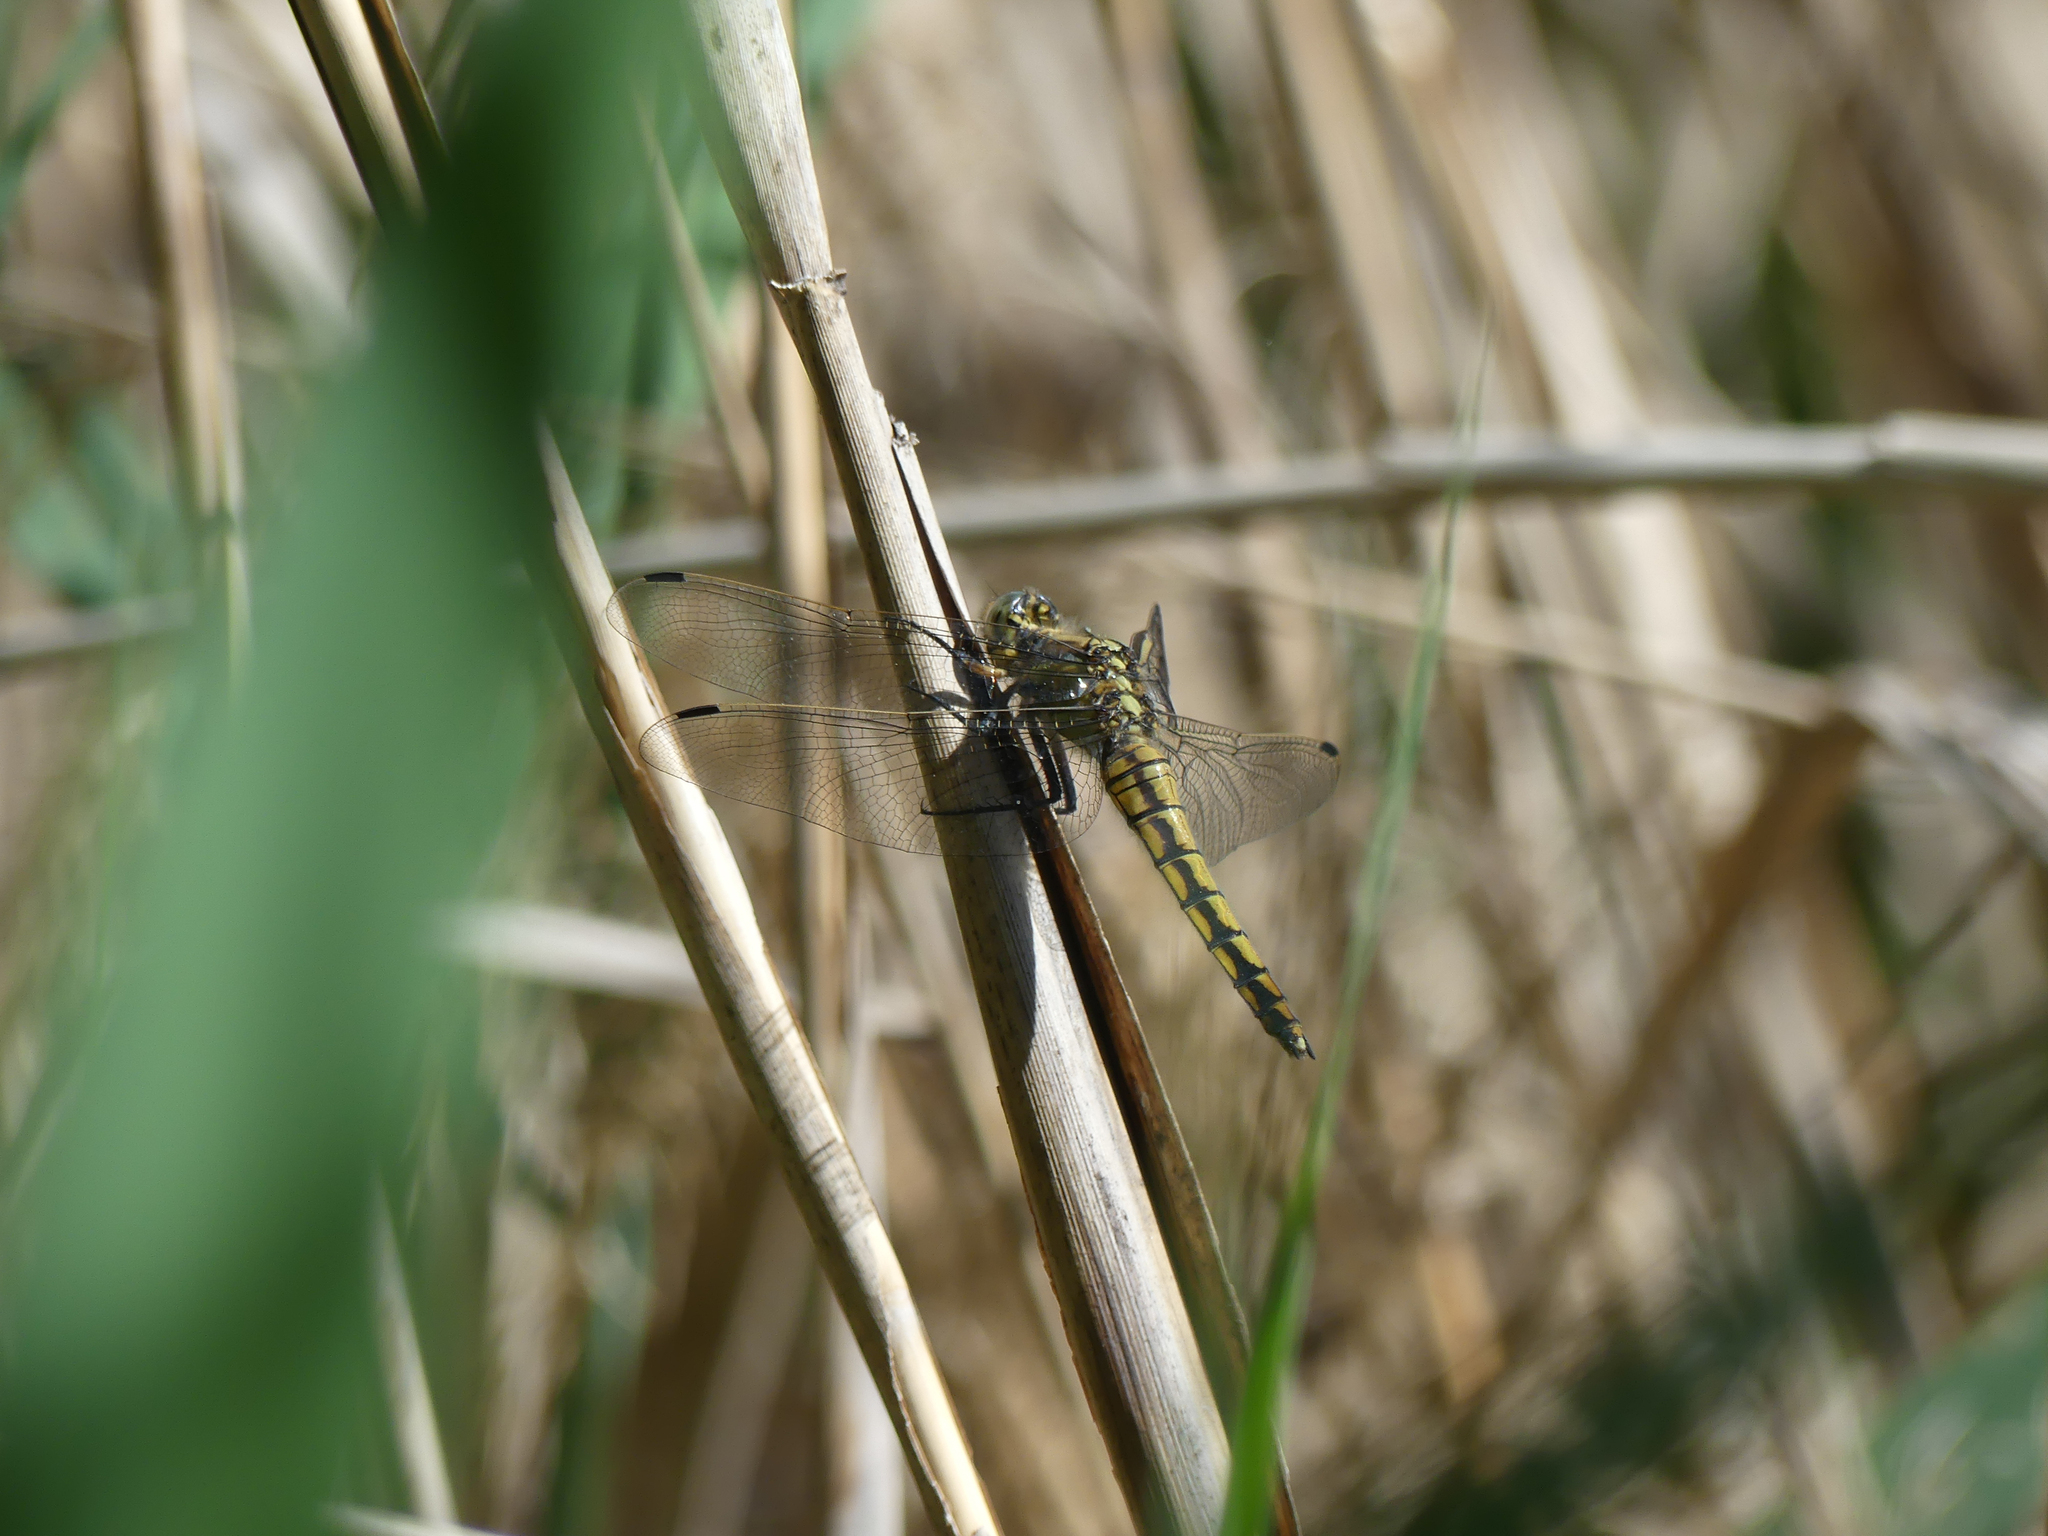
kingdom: Animalia
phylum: Arthropoda
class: Insecta
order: Odonata
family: Libellulidae
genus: Orthetrum
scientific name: Orthetrum cancellatum
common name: Black-tailed skimmer
